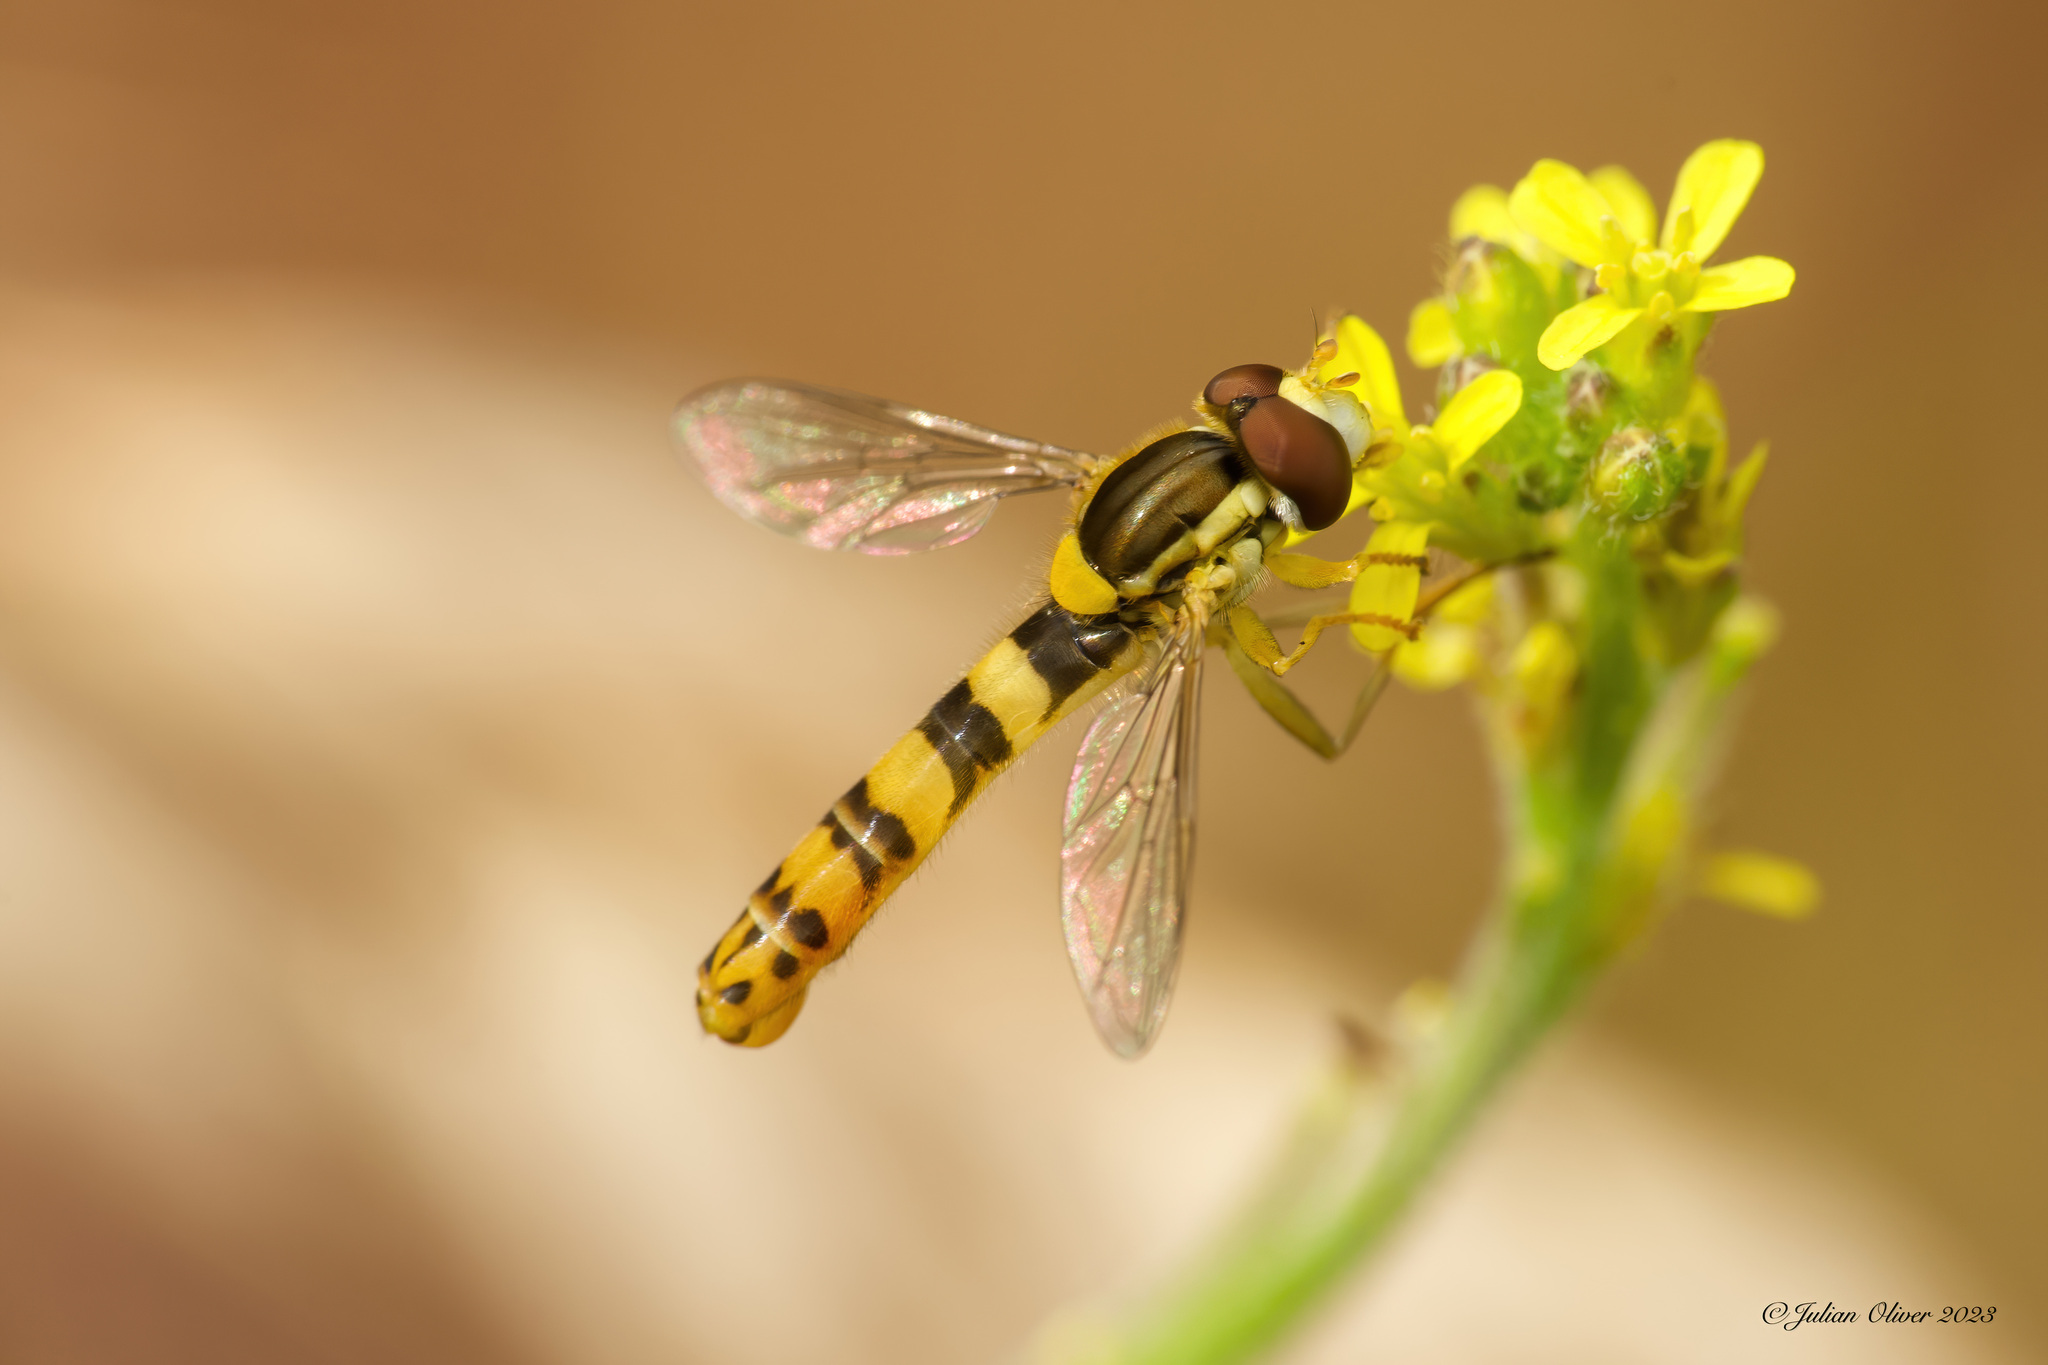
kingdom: Animalia
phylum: Arthropoda
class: Insecta
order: Diptera
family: Syrphidae
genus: Sphaerophoria
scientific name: Sphaerophoria scripta
